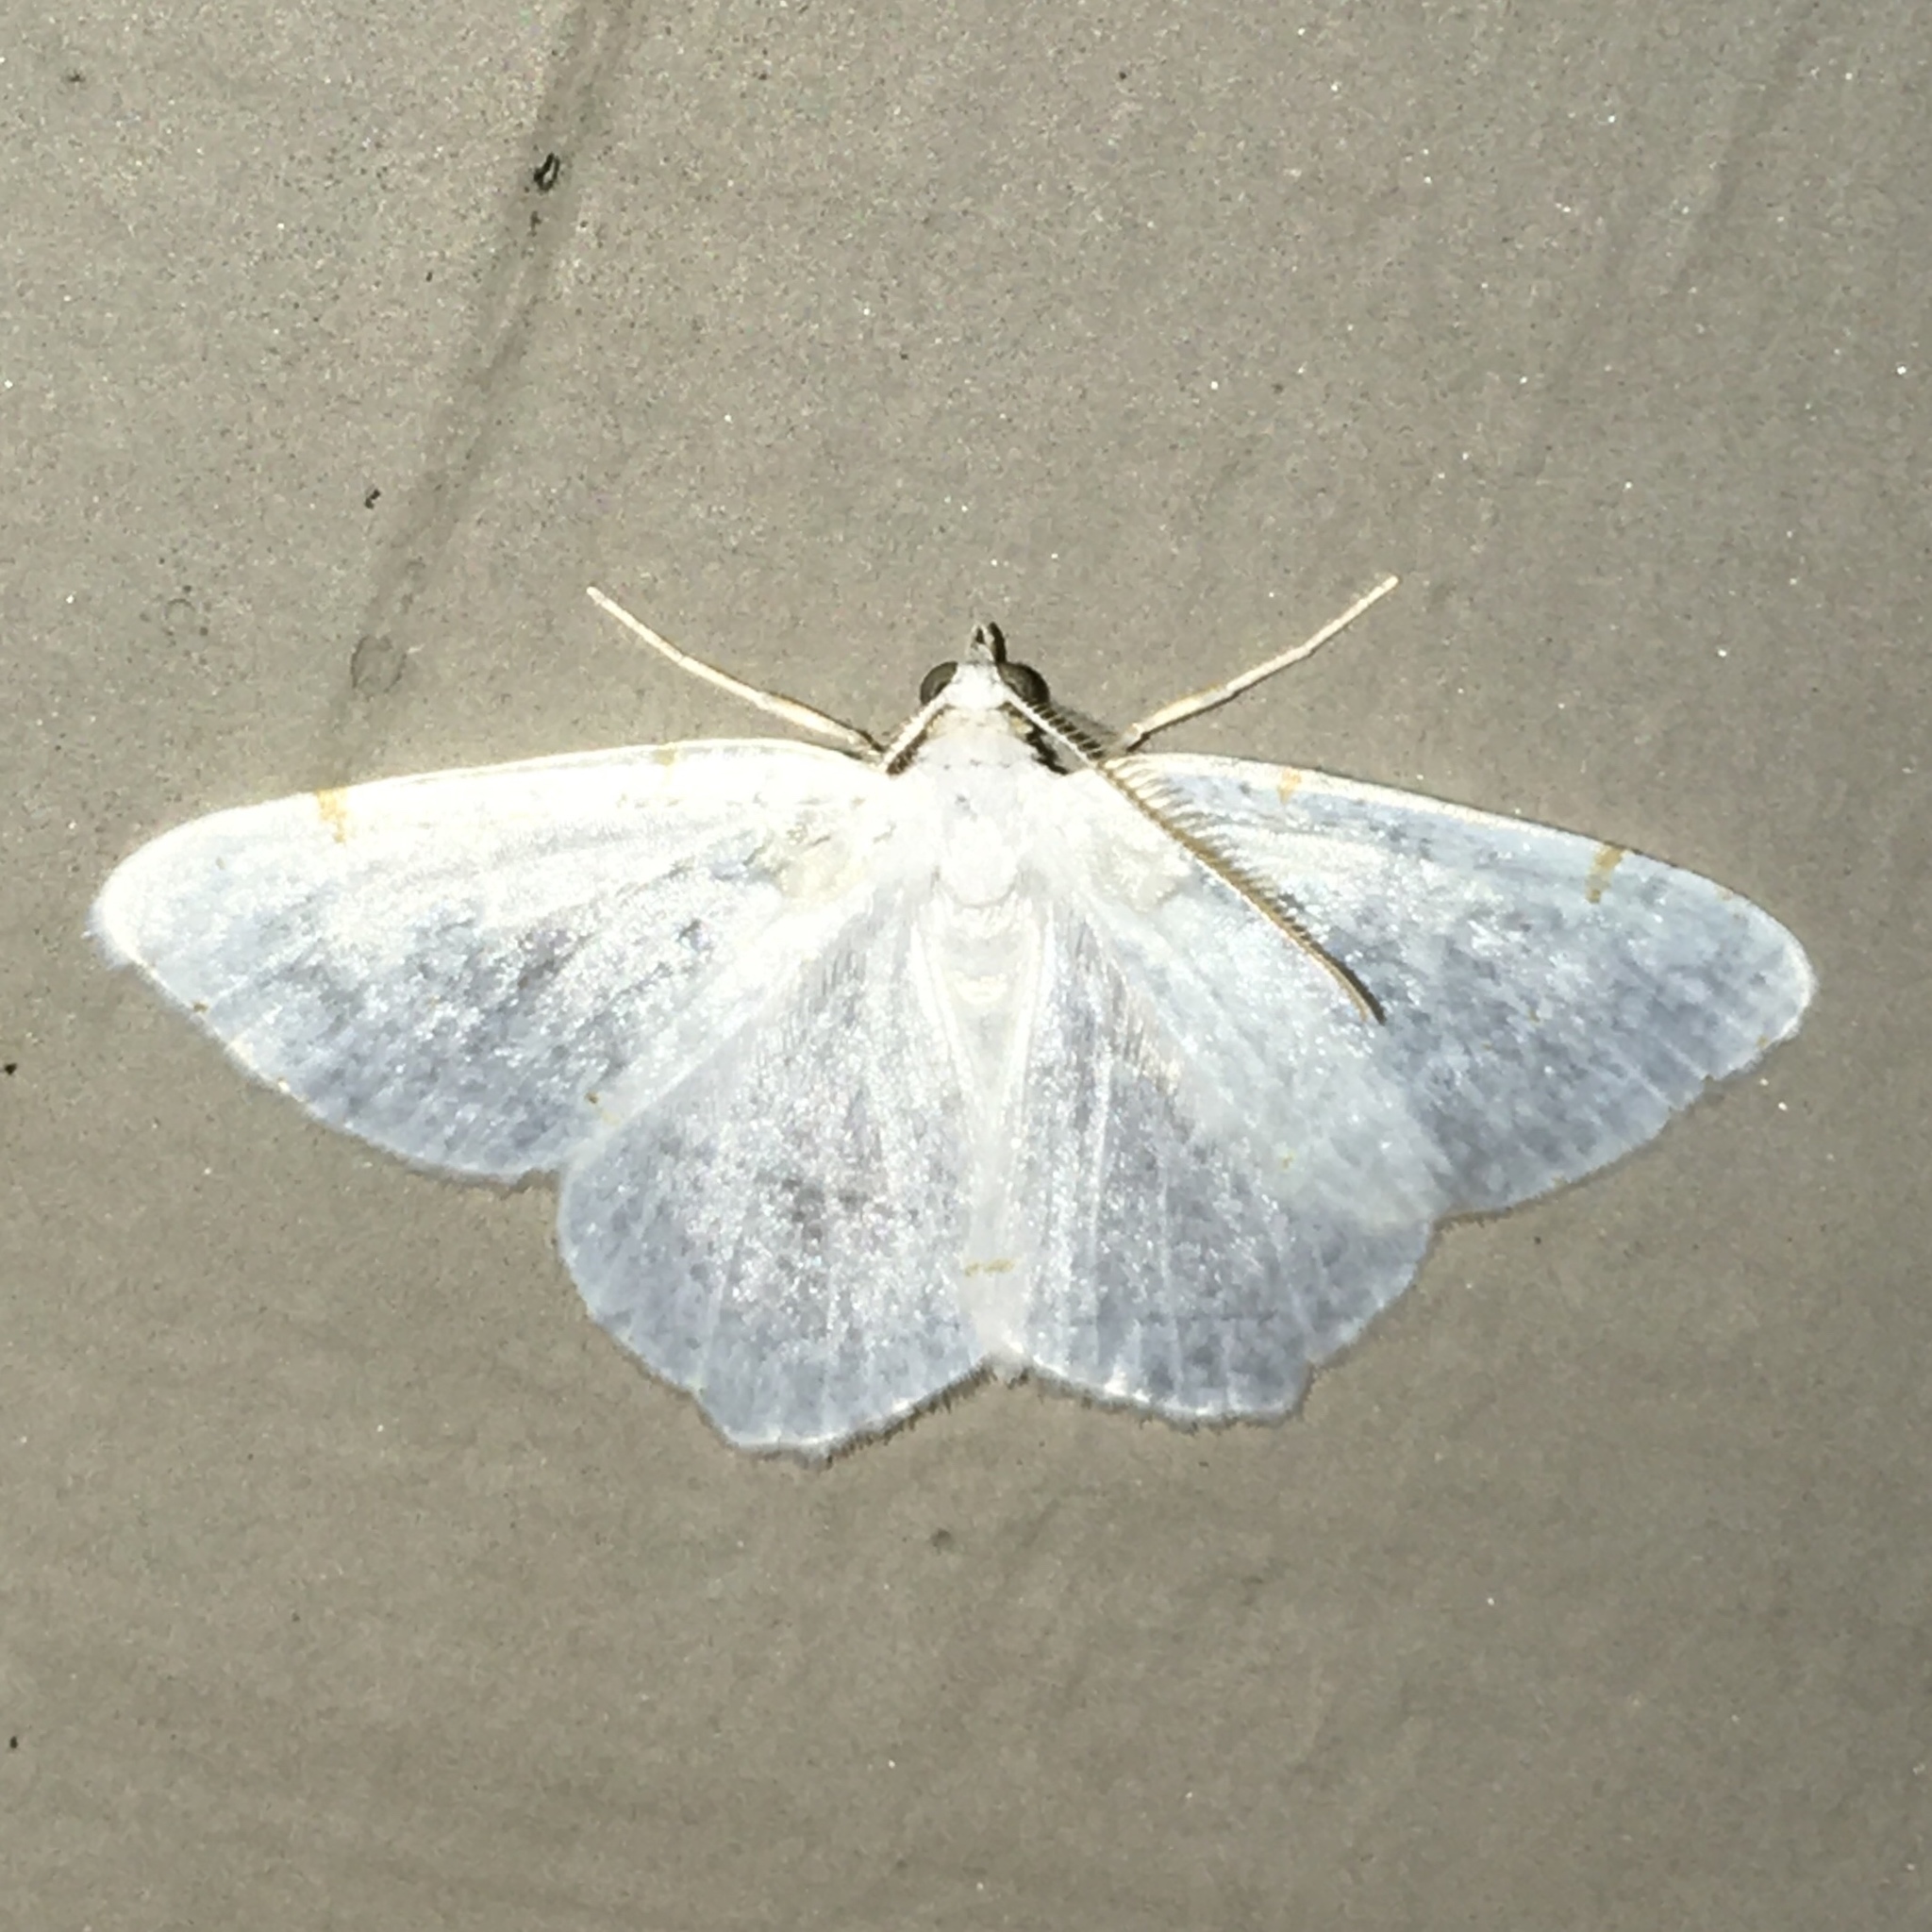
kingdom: Animalia
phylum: Arthropoda
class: Insecta
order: Lepidoptera
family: Geometridae
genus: Macaria
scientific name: Macaria pustularia
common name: Lesser maple spanworm moth
